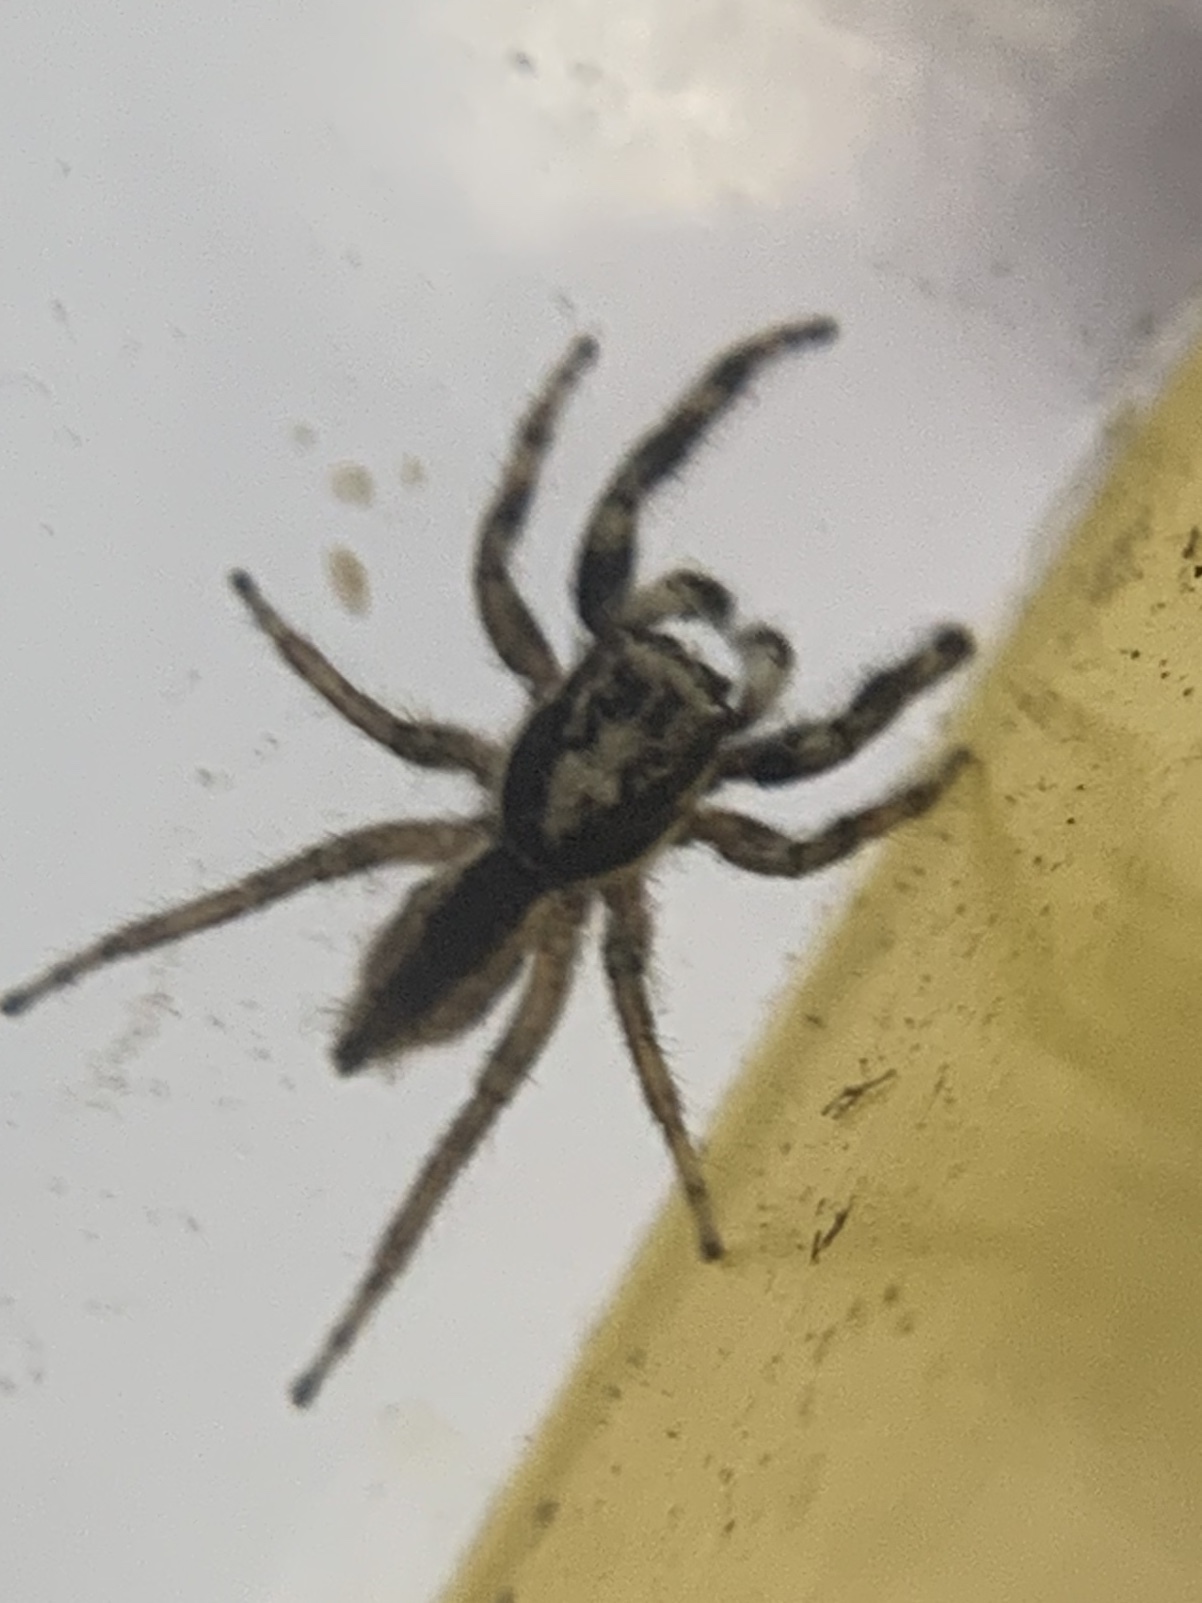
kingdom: Animalia
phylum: Arthropoda
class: Arachnida
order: Araneae
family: Salticidae
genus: Menemerus
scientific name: Menemerus bivittatus
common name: Gray wall jumper
